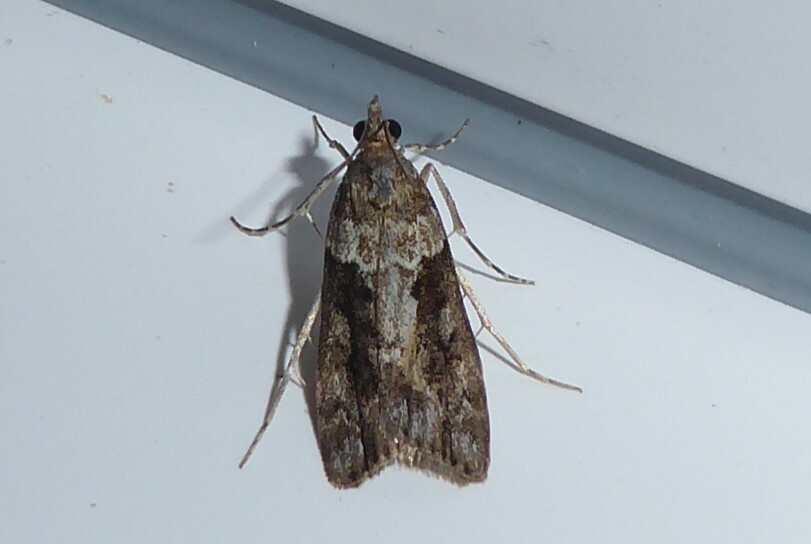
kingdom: Animalia
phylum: Arthropoda
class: Insecta
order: Lepidoptera
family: Crambidae
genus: Eudonia
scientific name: Eudonia submarginalis
